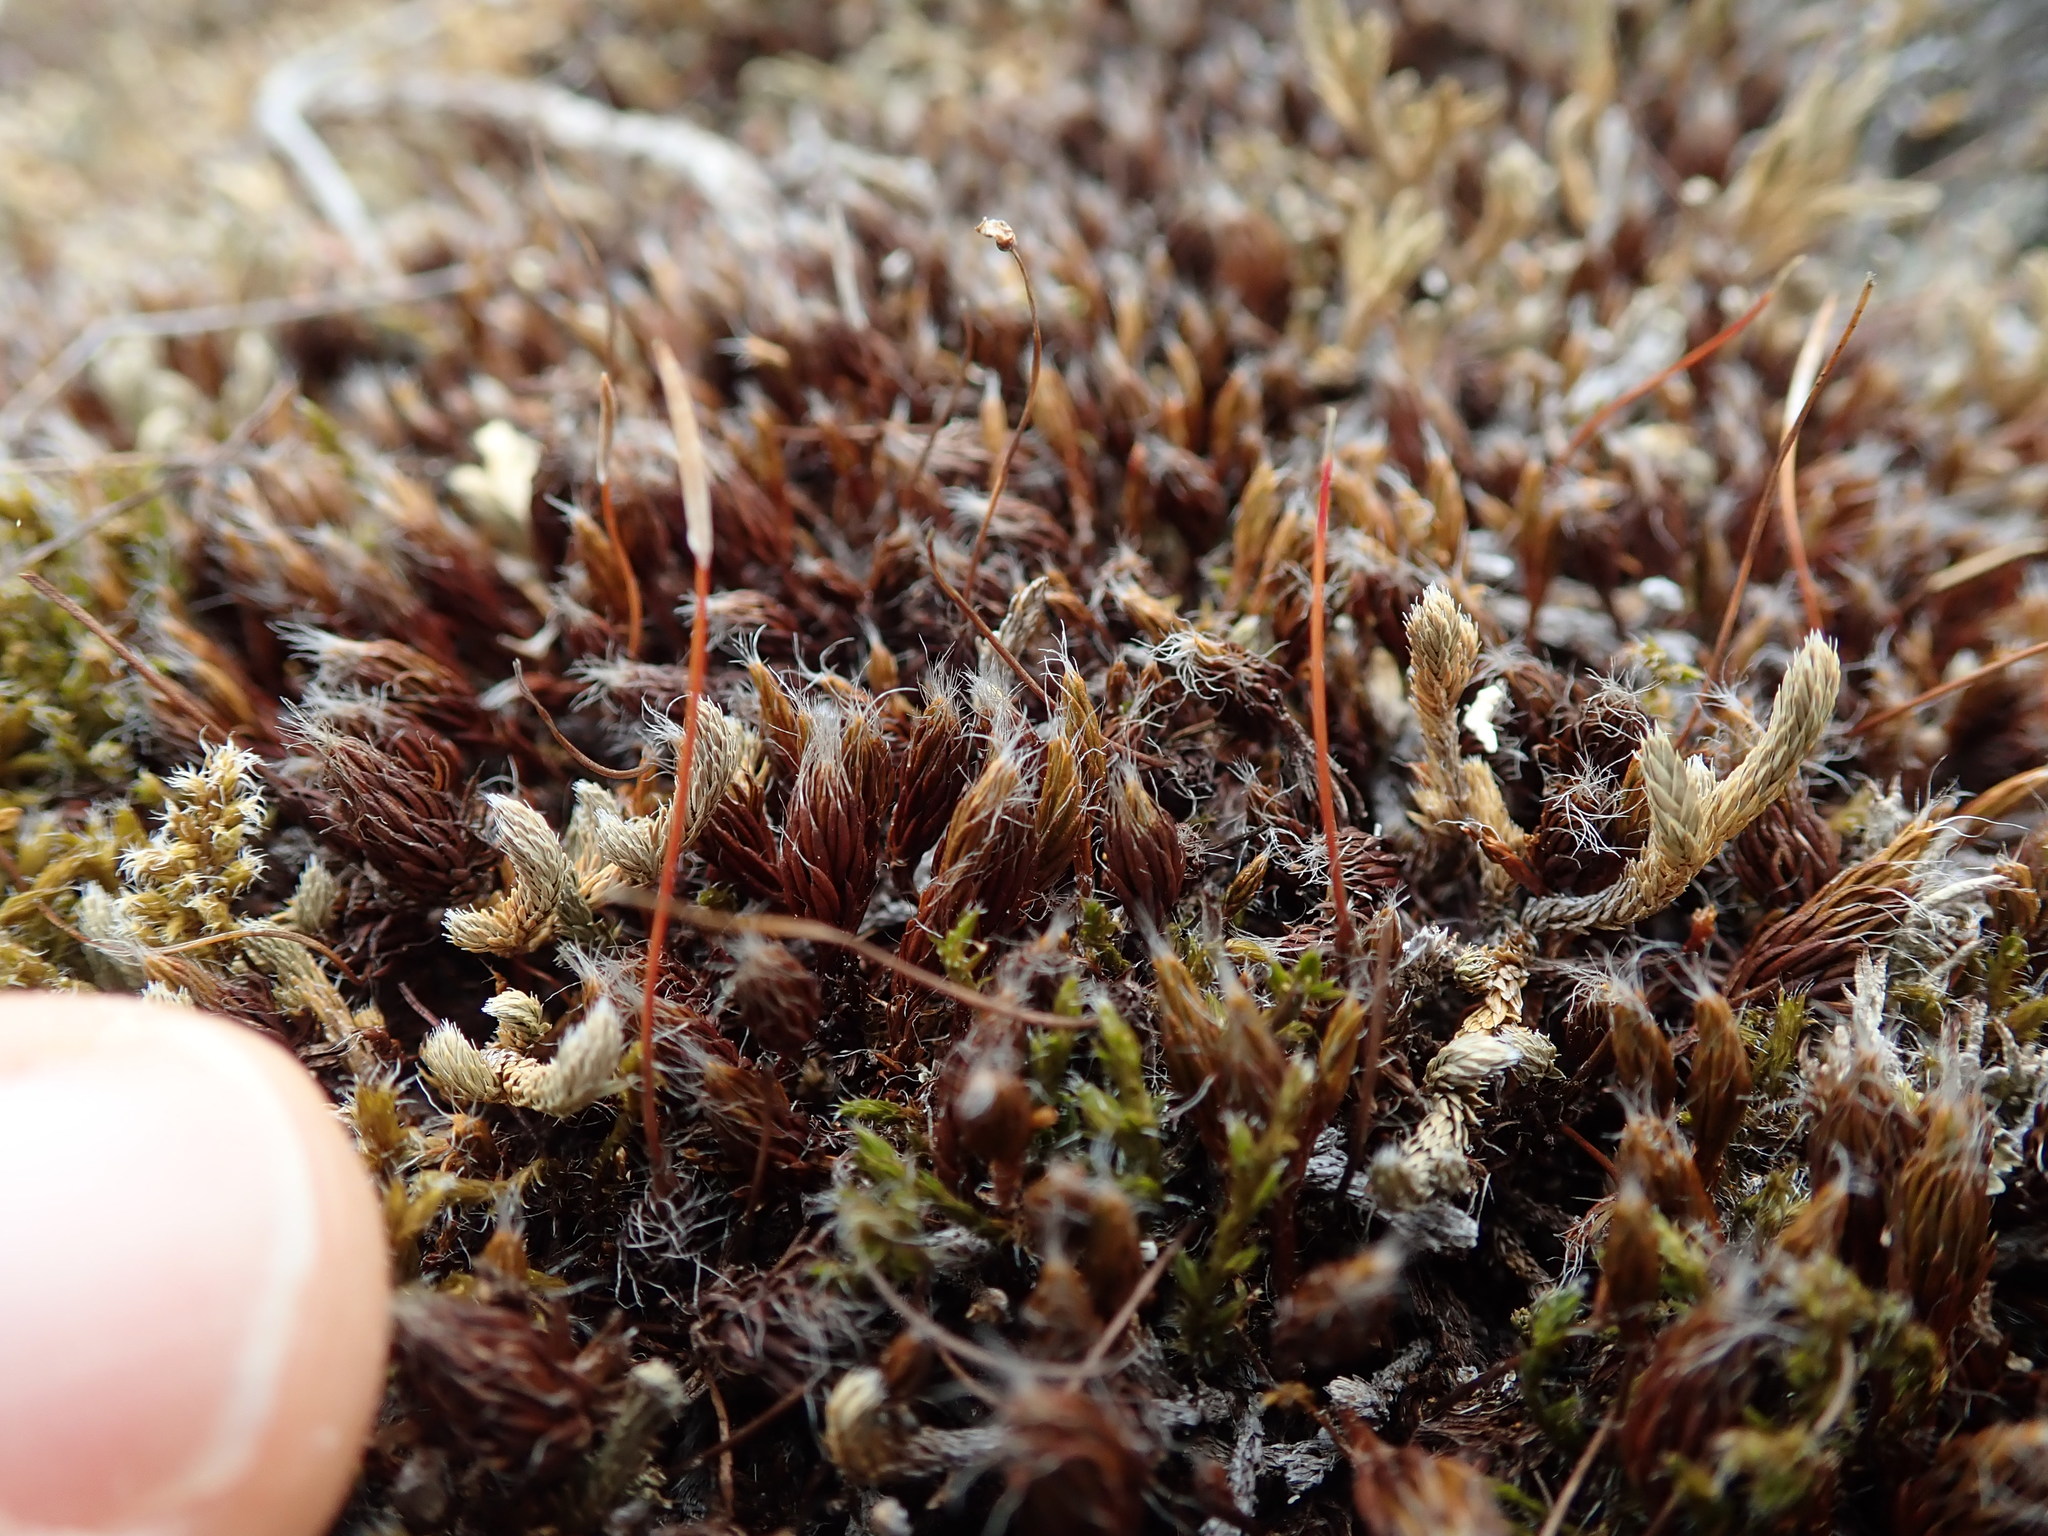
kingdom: Plantae
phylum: Bryophyta
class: Polytrichopsida
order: Polytrichales
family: Polytrichaceae
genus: Polytrichum
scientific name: Polytrichum piliferum
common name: Bristly haircap
